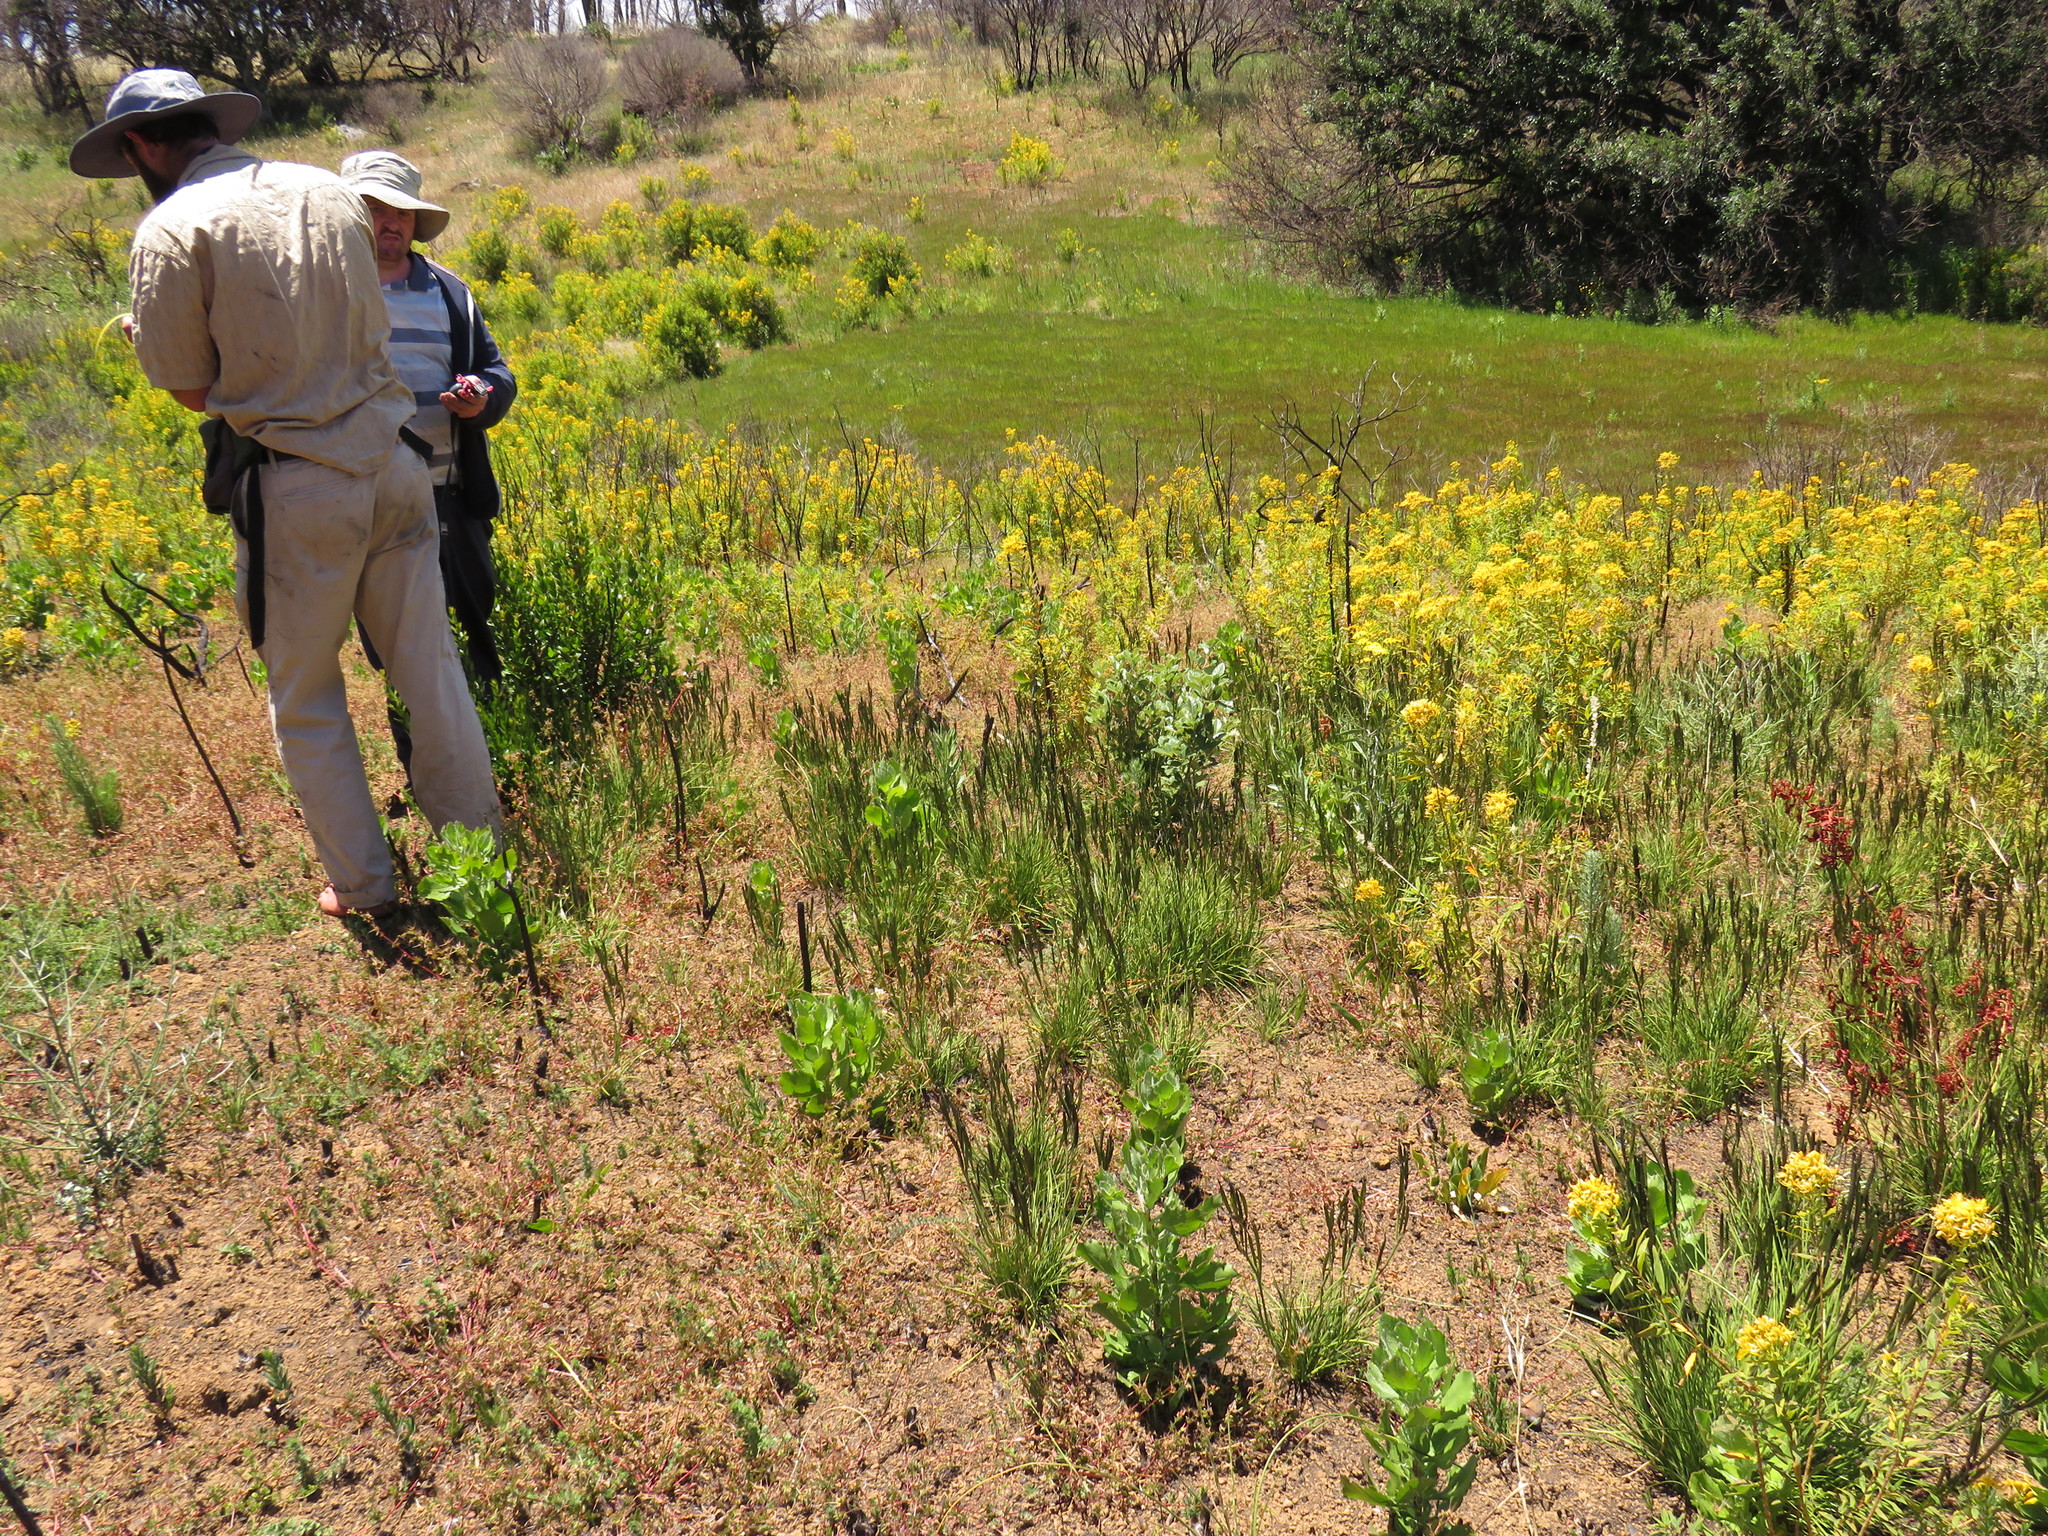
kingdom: Plantae
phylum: Tracheophyta
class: Liliopsida
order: Asparagales
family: Iridaceae
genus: Aristea
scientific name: Aristea spiralis
